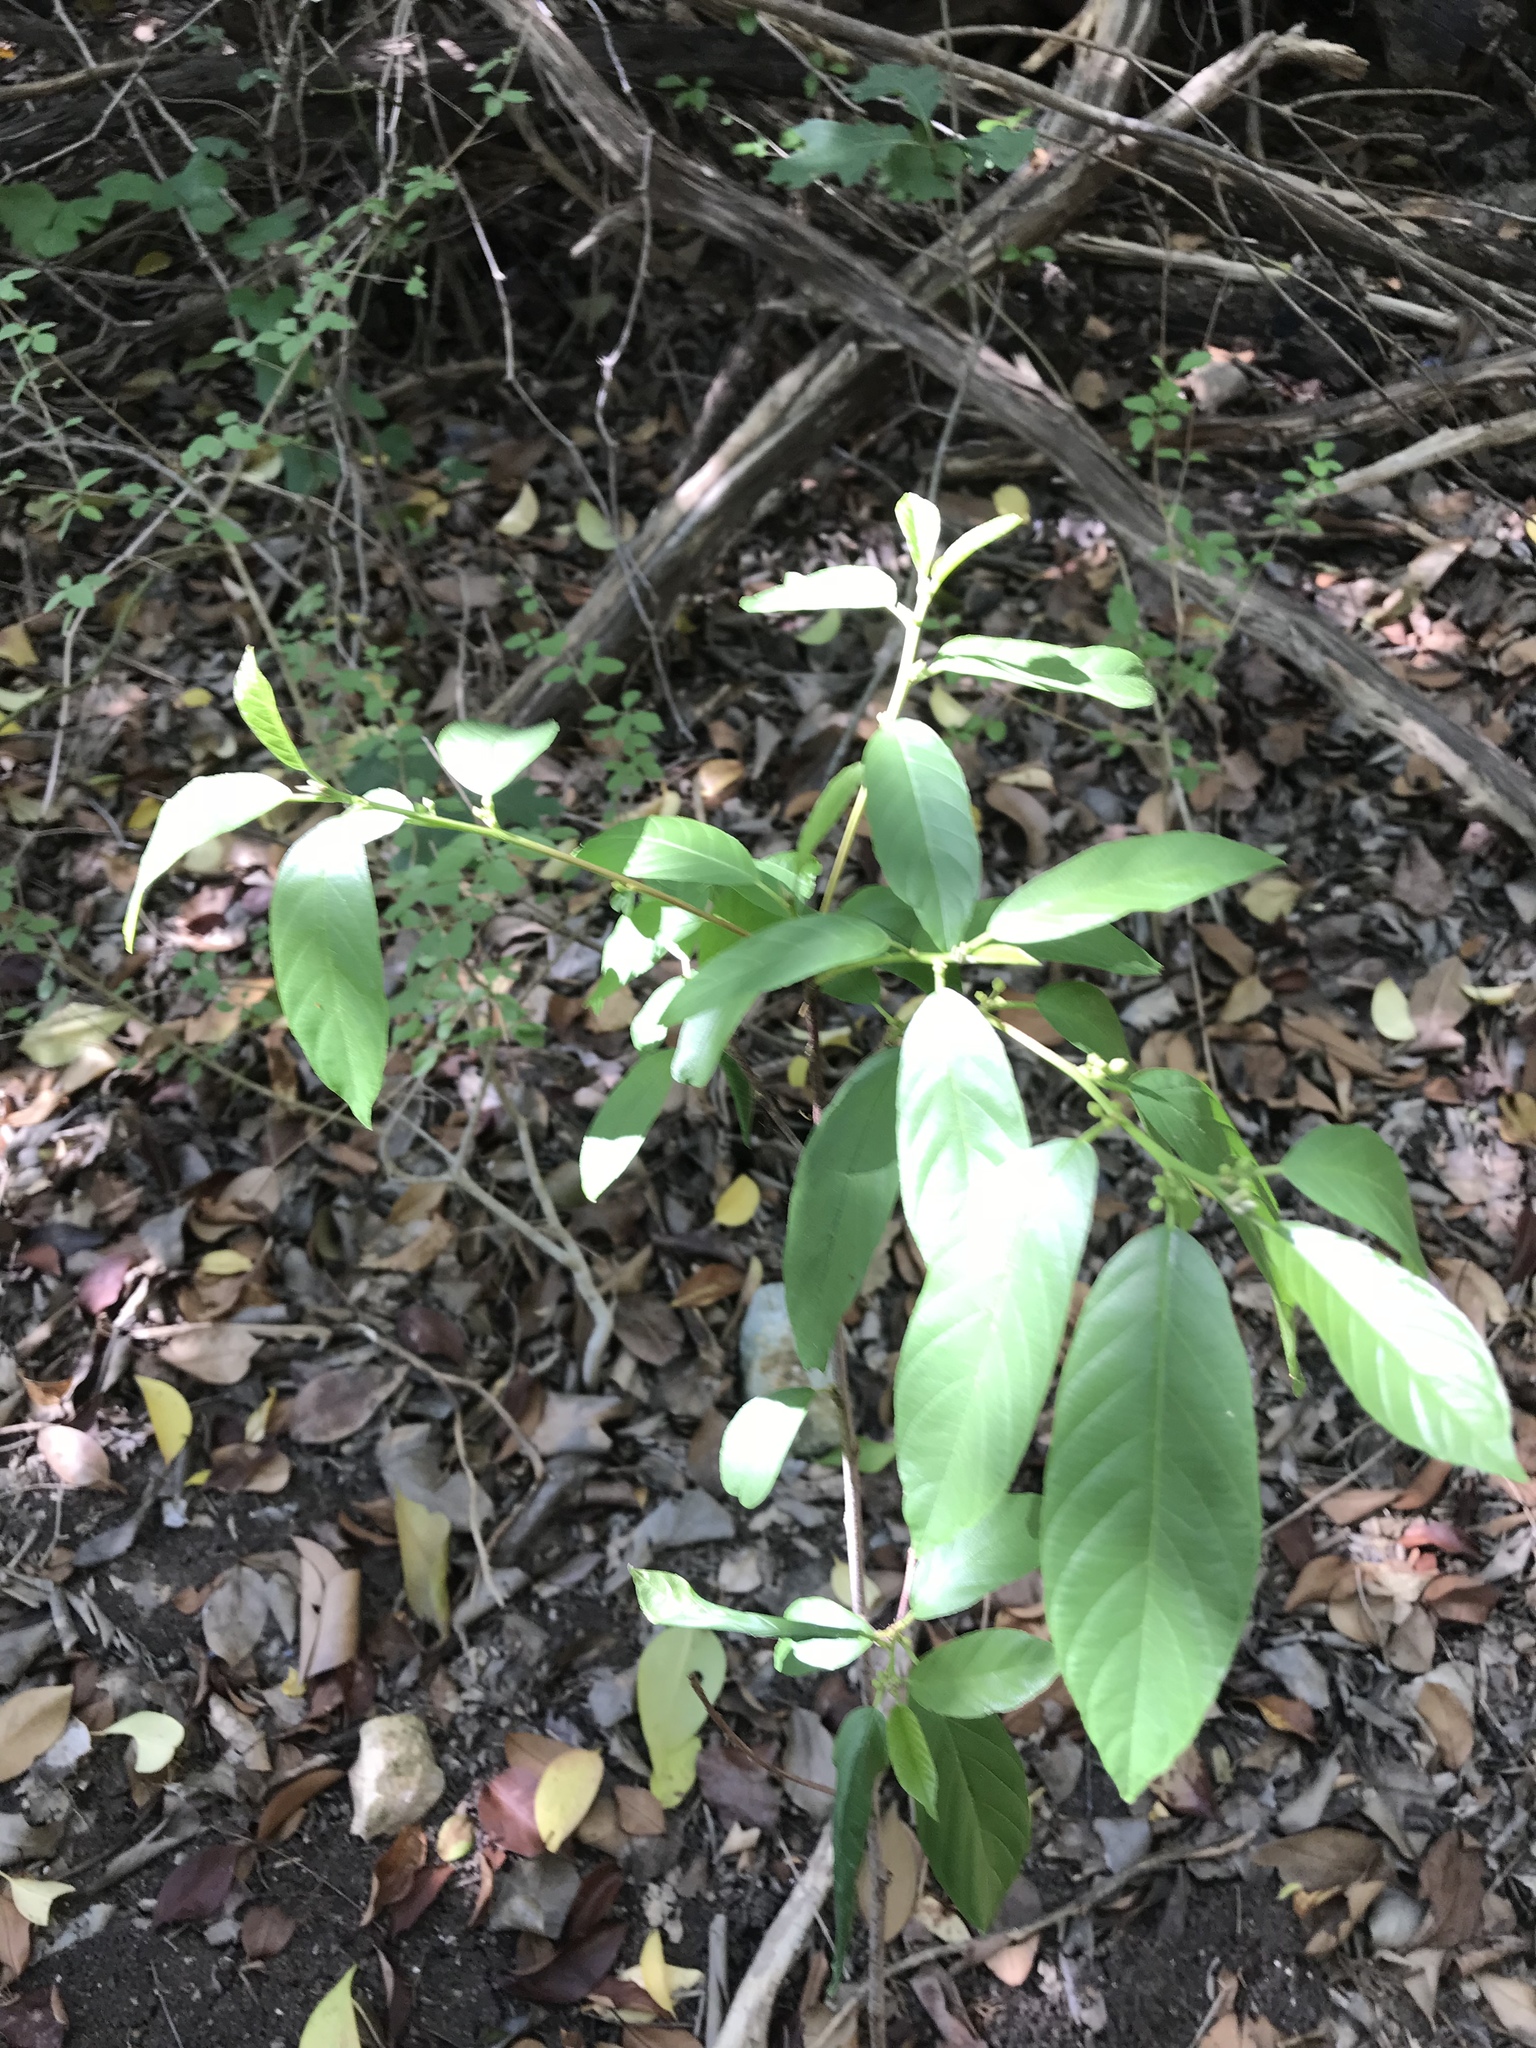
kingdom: Plantae
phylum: Tracheophyta
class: Magnoliopsida
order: Rosales
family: Rhamnaceae
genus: Frangula
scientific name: Frangula caroliniana
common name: Carolina buckthorn
